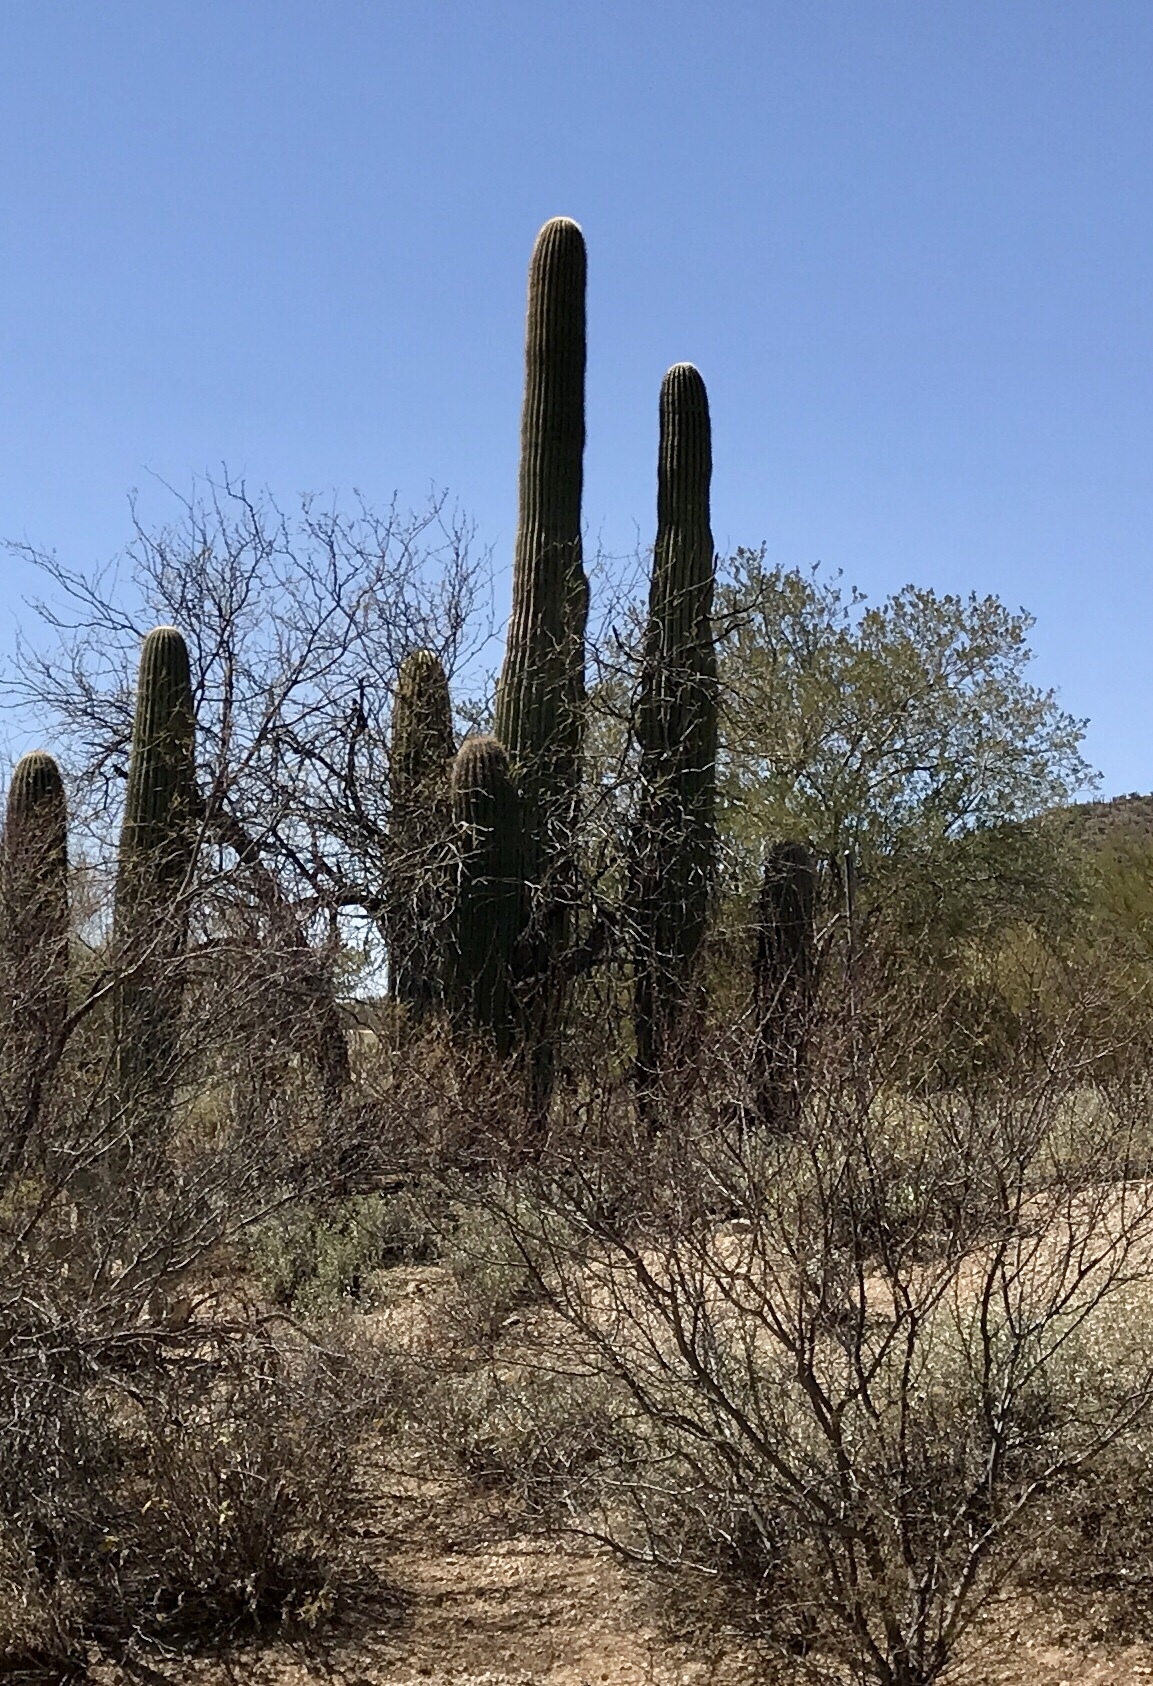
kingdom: Plantae
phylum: Tracheophyta
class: Magnoliopsida
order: Caryophyllales
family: Cactaceae
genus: Carnegiea
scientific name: Carnegiea gigantea
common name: Saguaro
